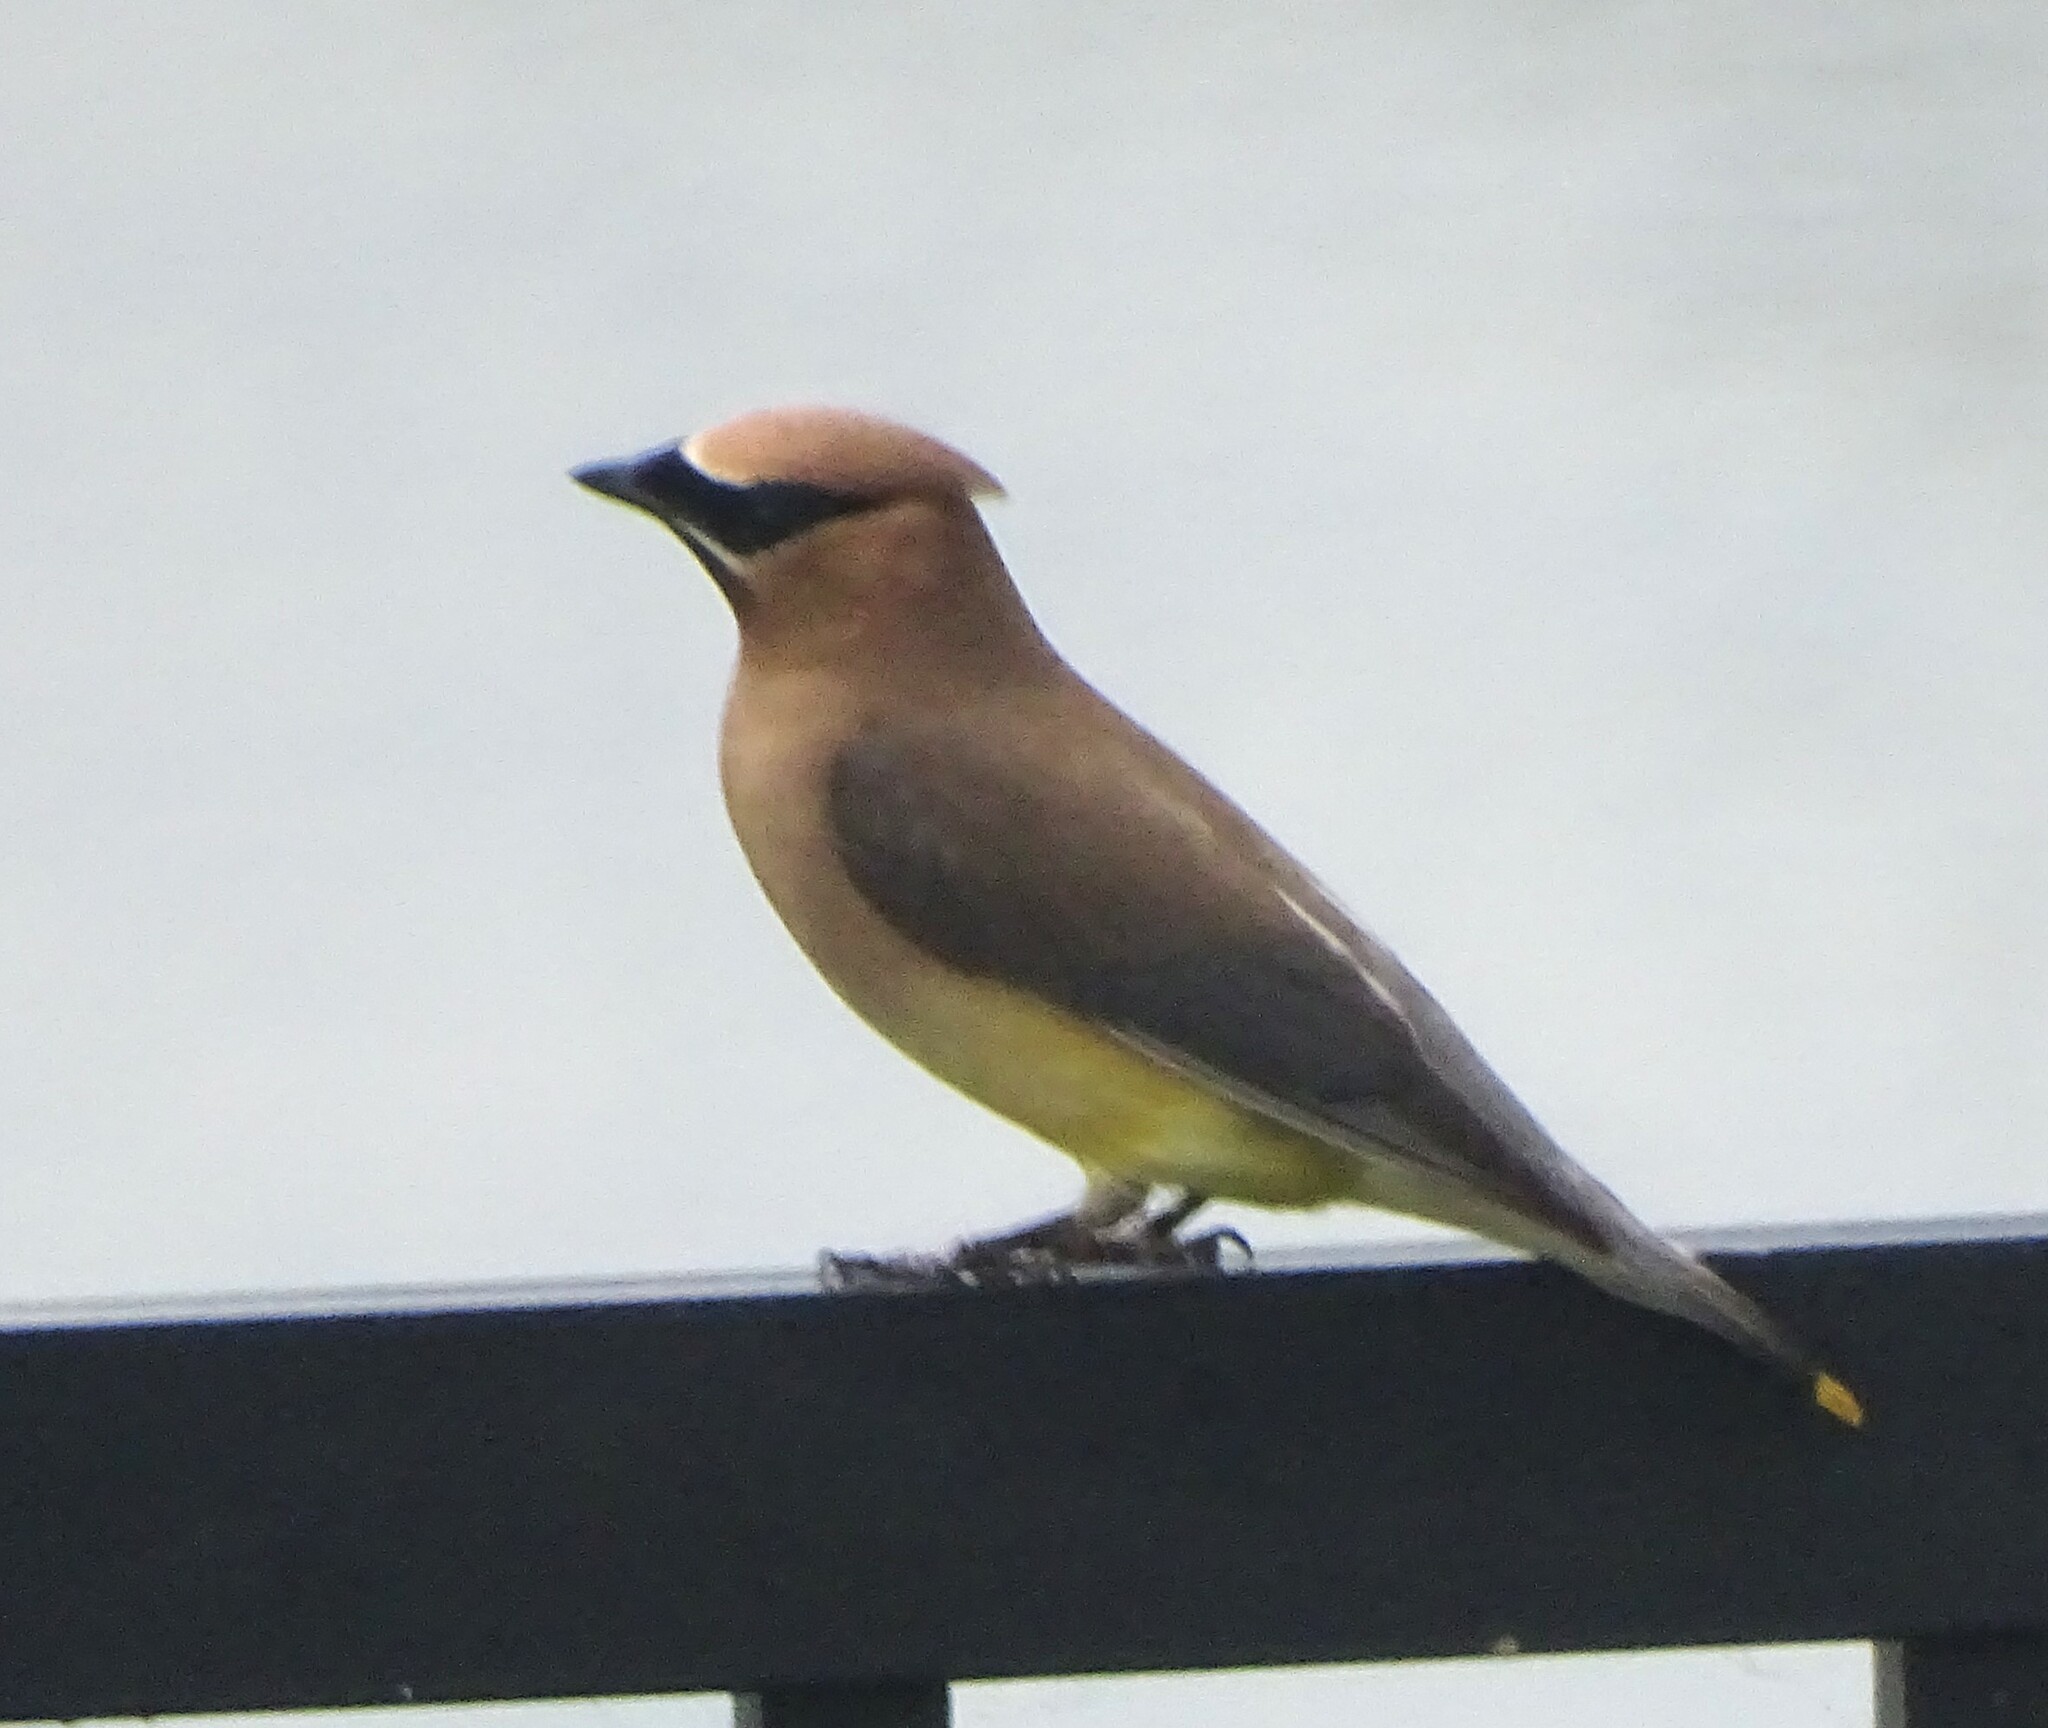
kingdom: Animalia
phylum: Chordata
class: Aves
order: Passeriformes
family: Bombycillidae
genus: Bombycilla
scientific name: Bombycilla cedrorum
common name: Cedar waxwing
